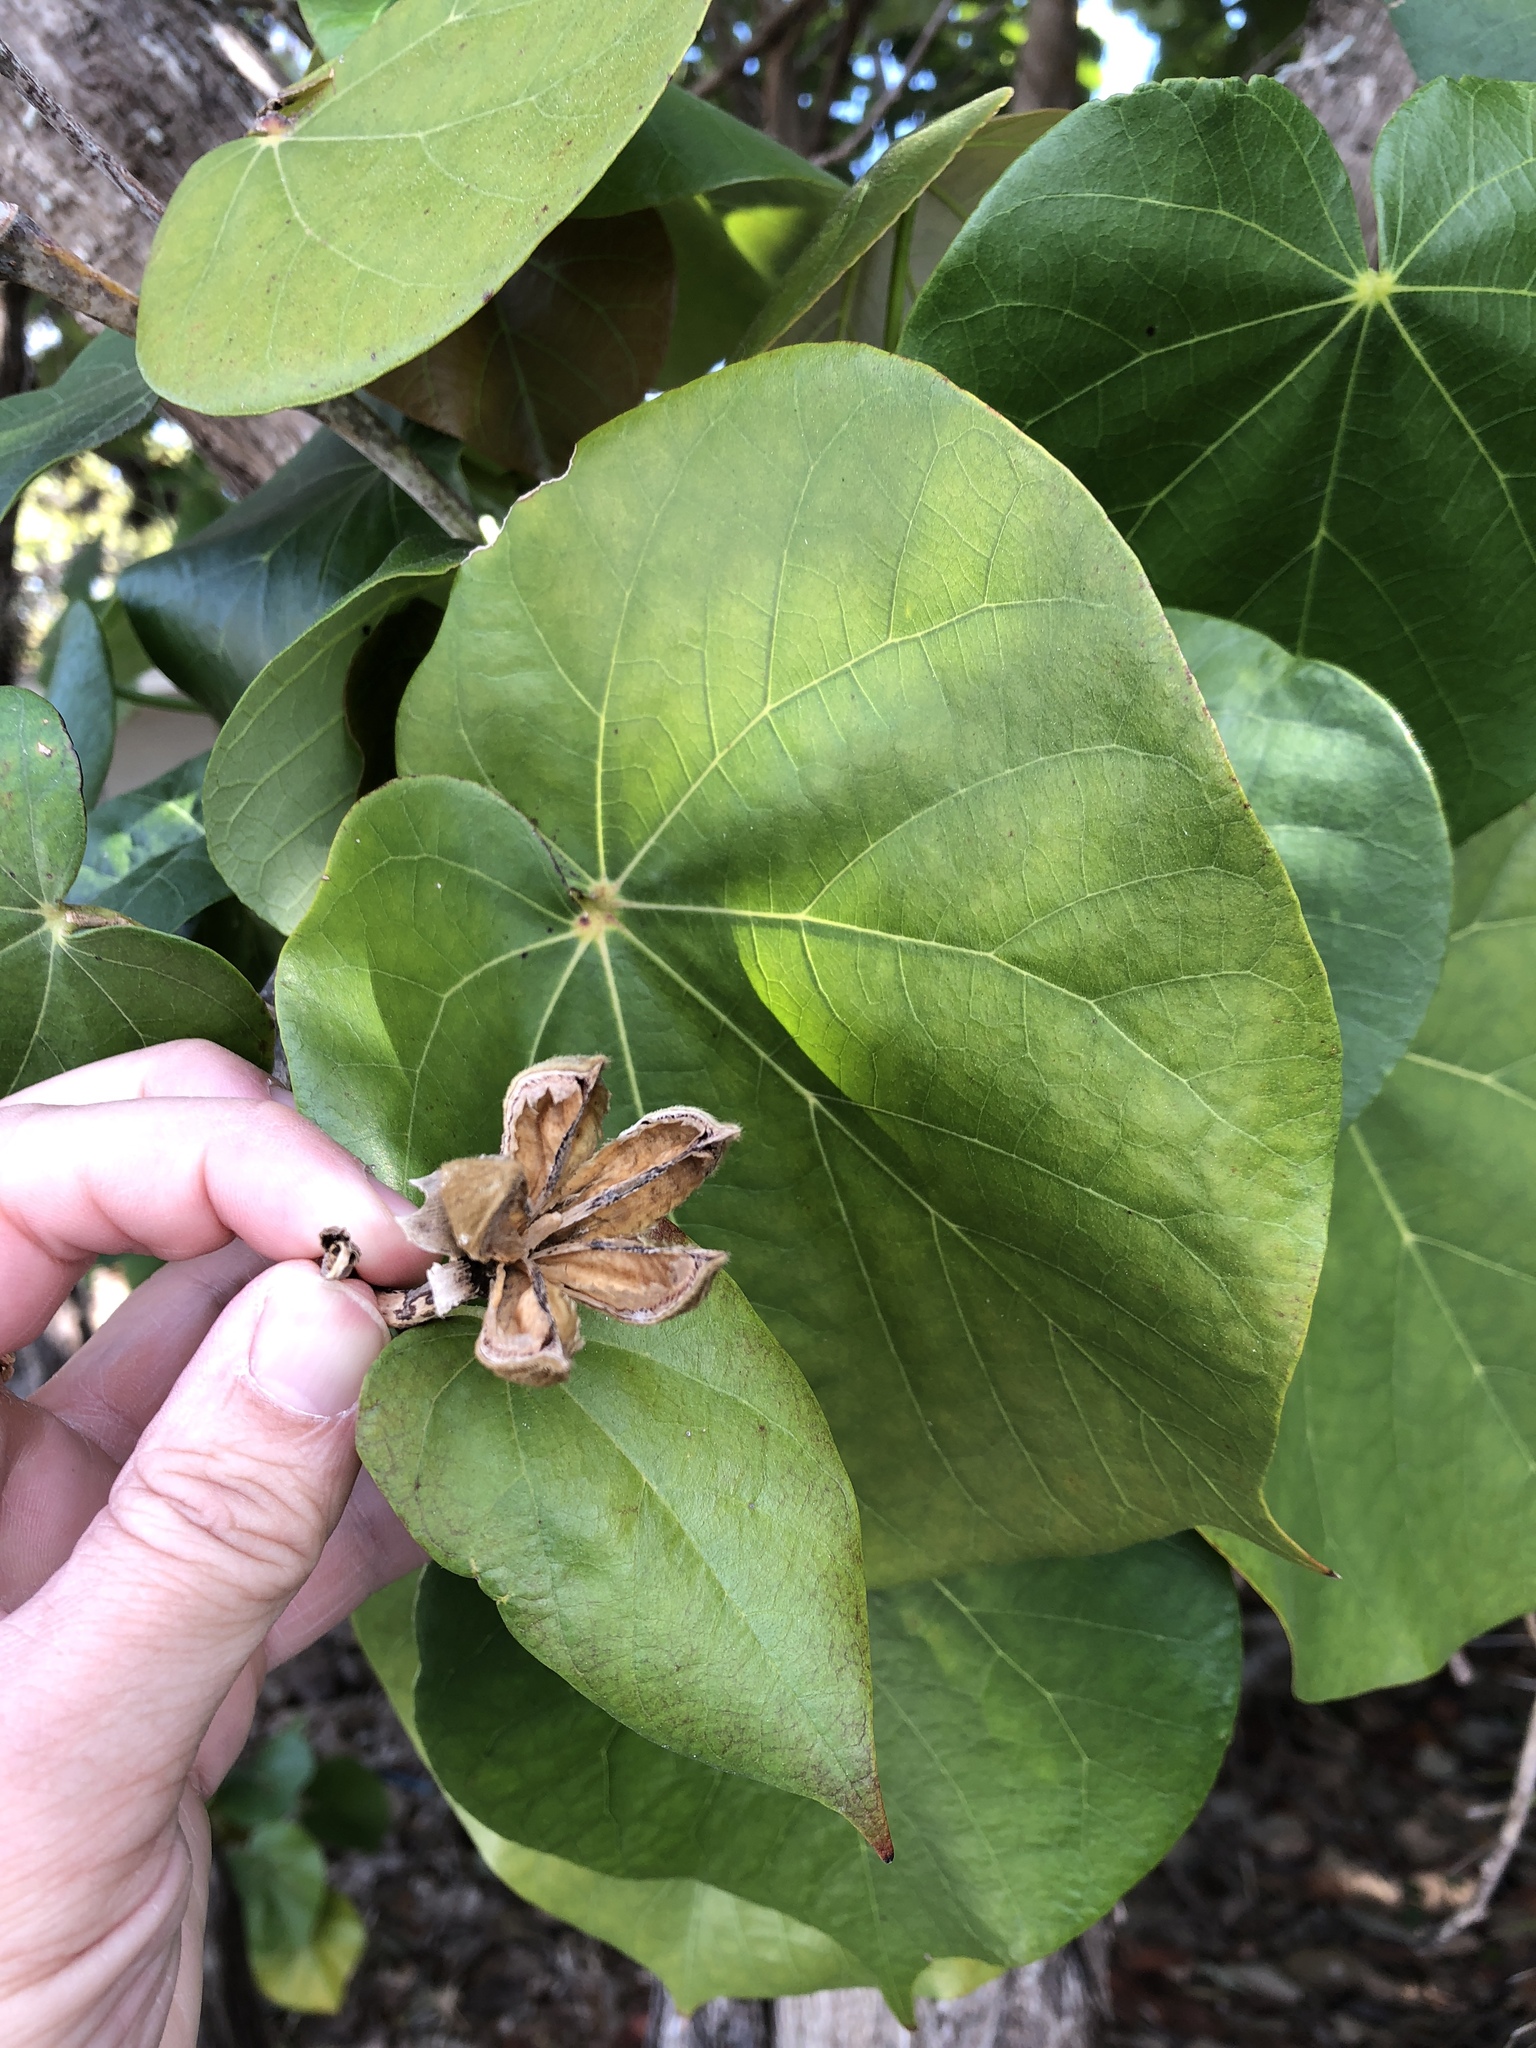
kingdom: Plantae
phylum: Tracheophyta
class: Magnoliopsida
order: Malvales
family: Malvaceae
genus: Thespesia
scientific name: Thespesia populnea
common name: Seaside mahoe
